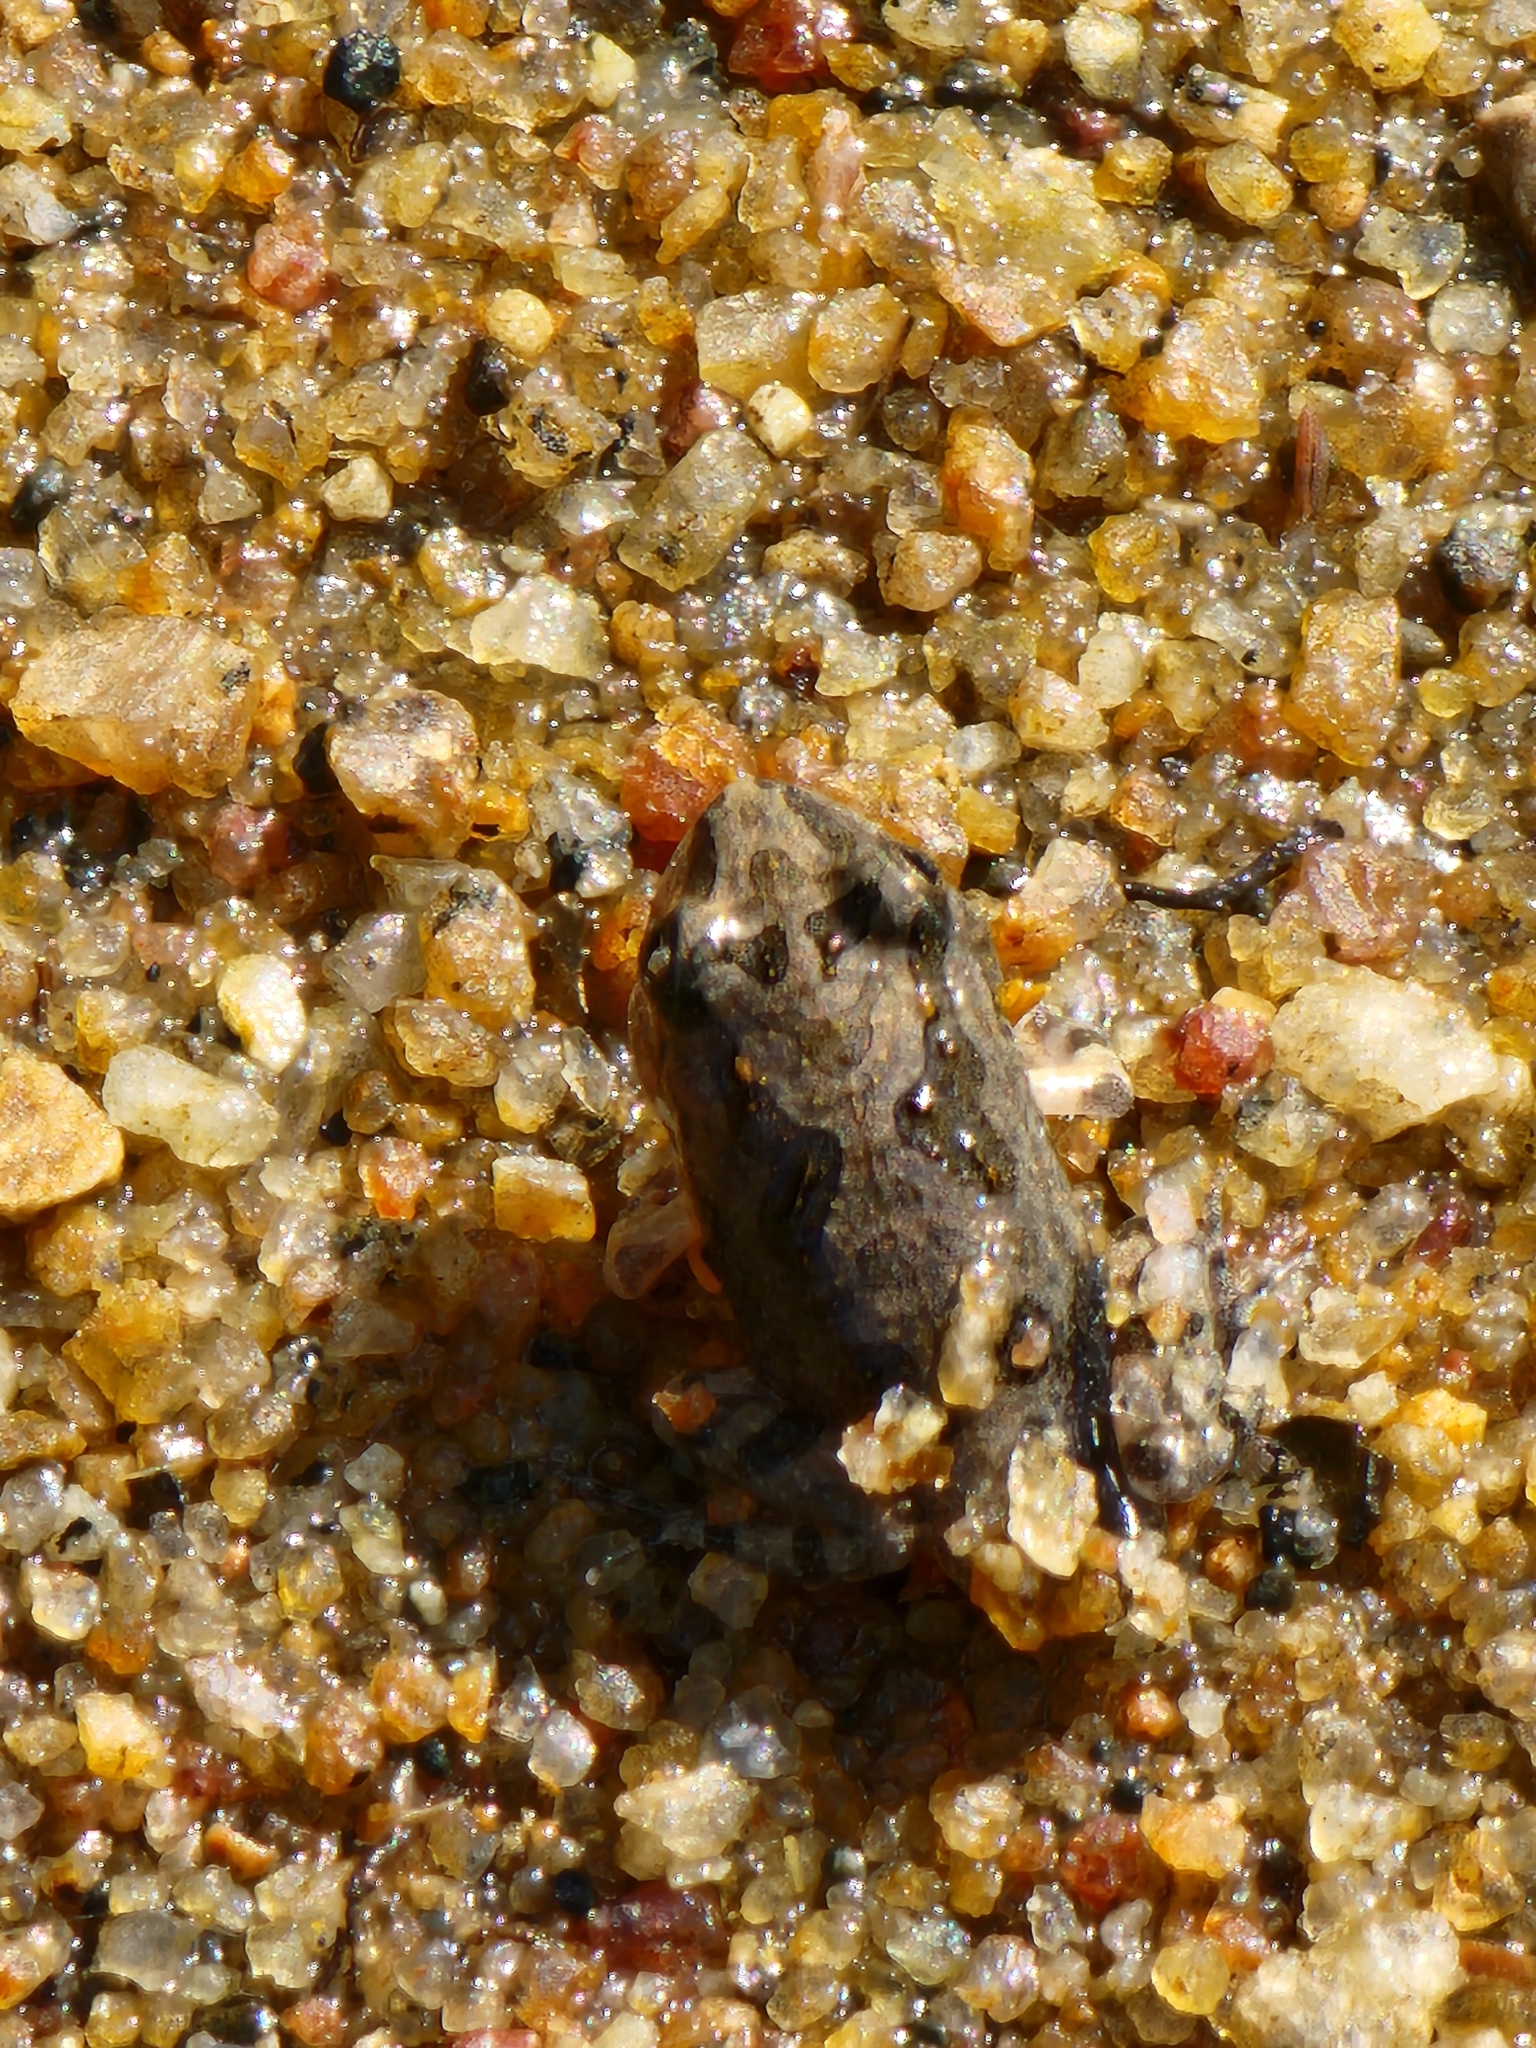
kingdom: Animalia
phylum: Chordata
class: Amphibia
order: Anura
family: Limnodynastidae
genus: Platyplectrum
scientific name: Platyplectrum ornatum
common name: Ornate burrowing frog
